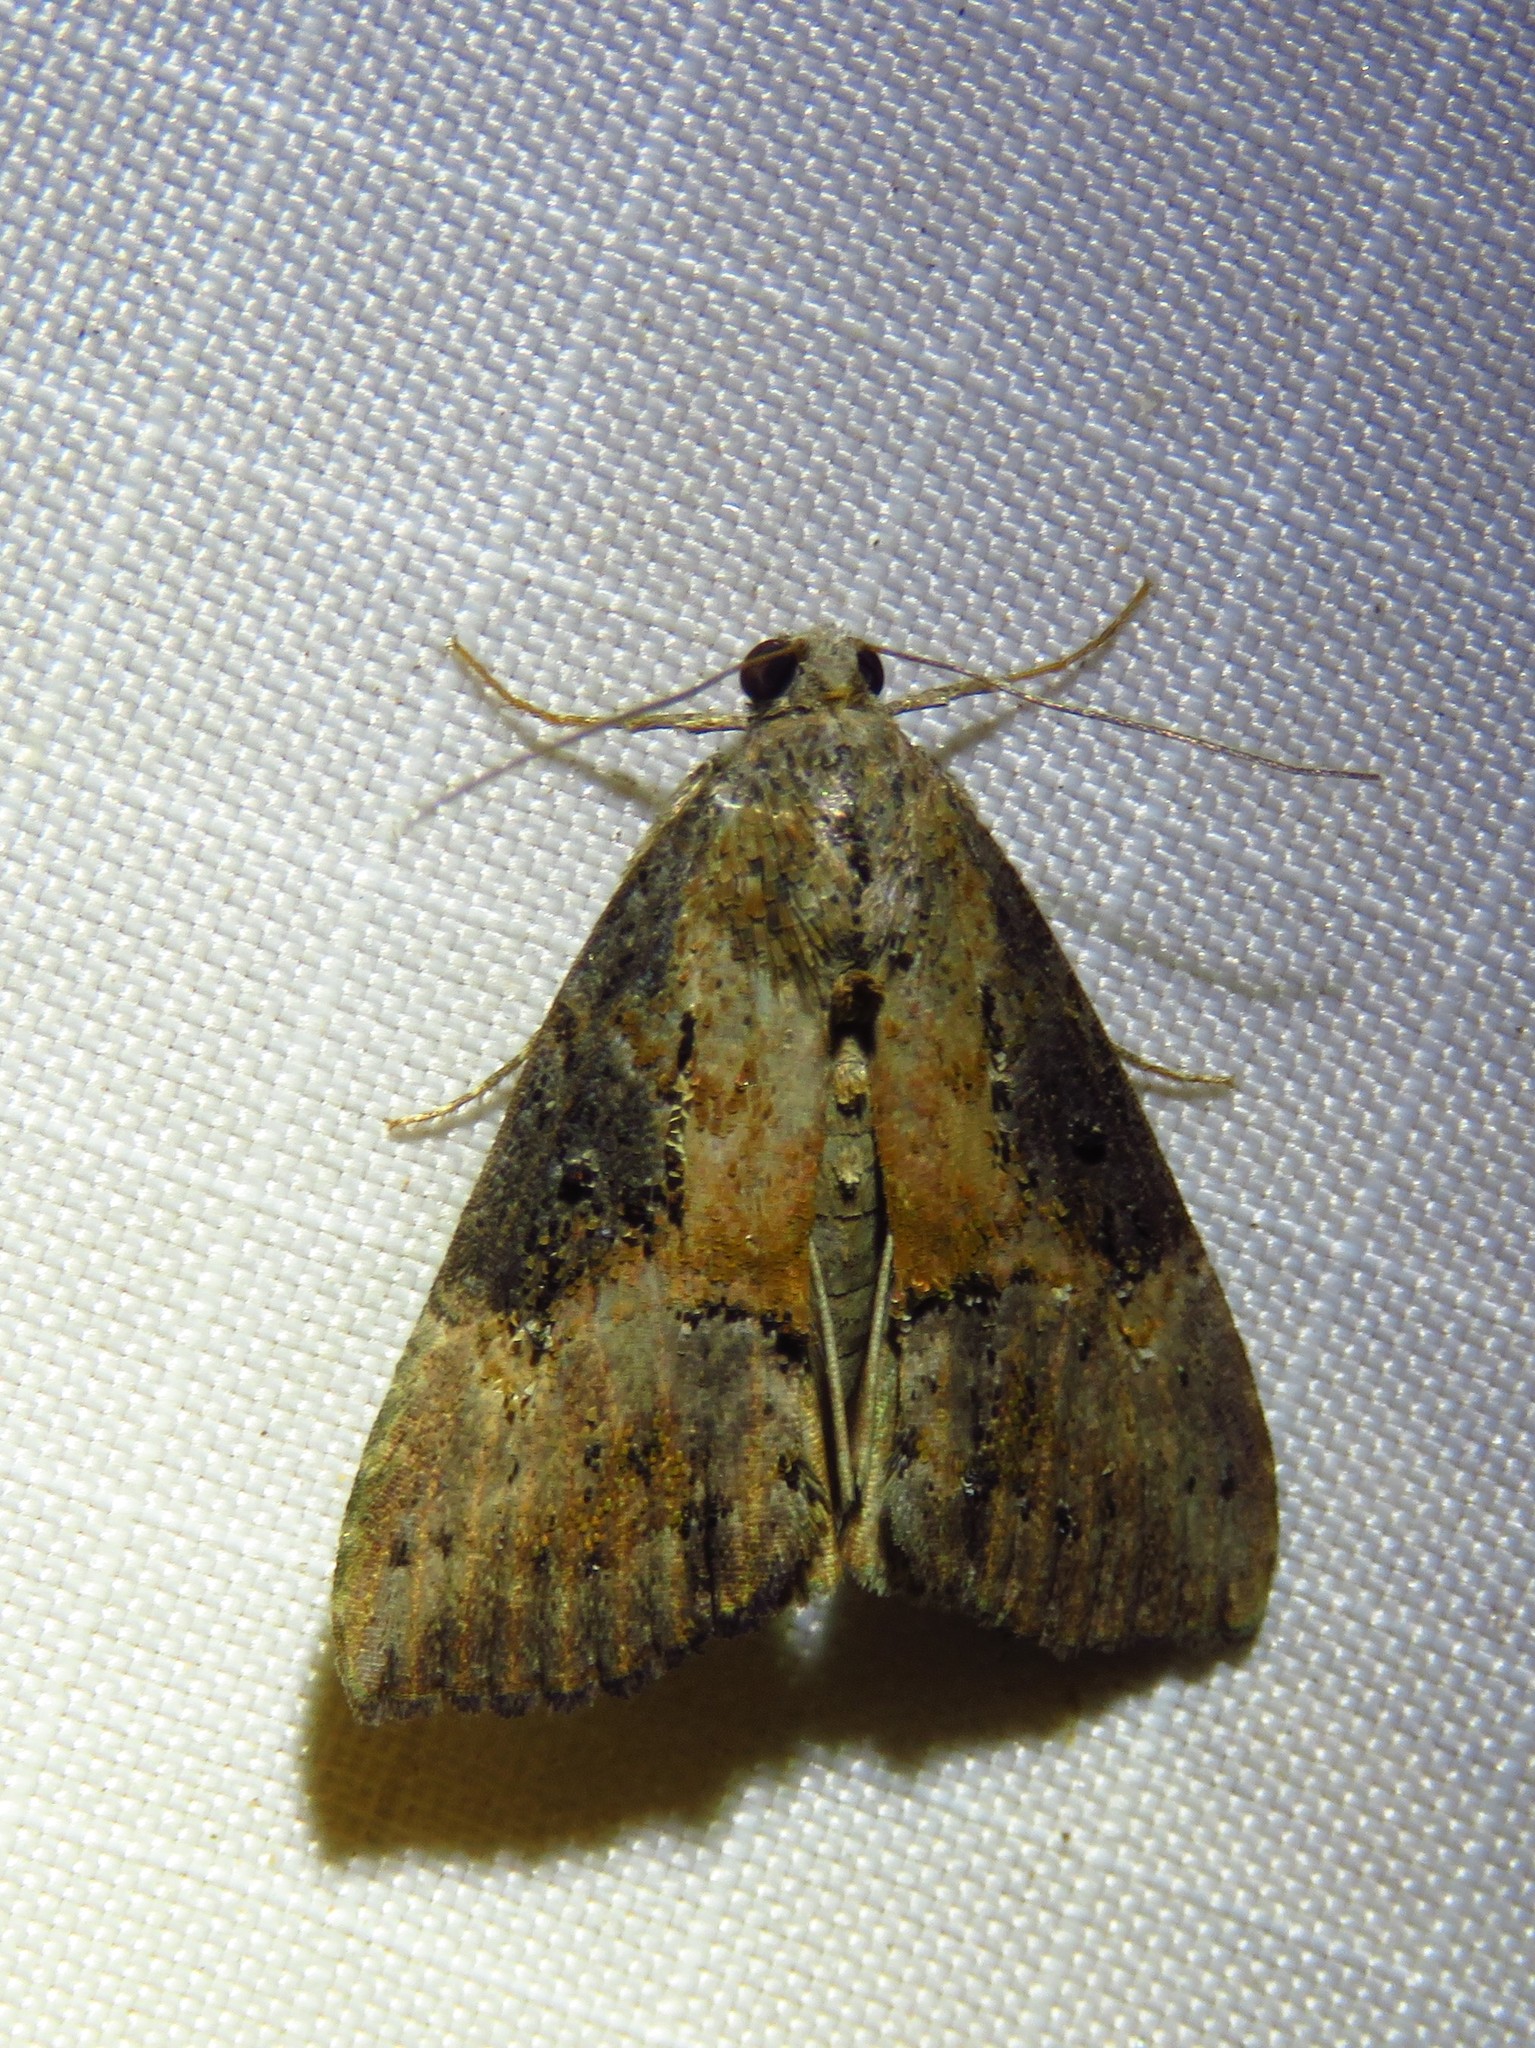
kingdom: Animalia
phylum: Arthropoda
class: Insecta
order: Lepidoptera
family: Erebidae
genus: Hypena
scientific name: Hypena scabra
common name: Green cloverworm
